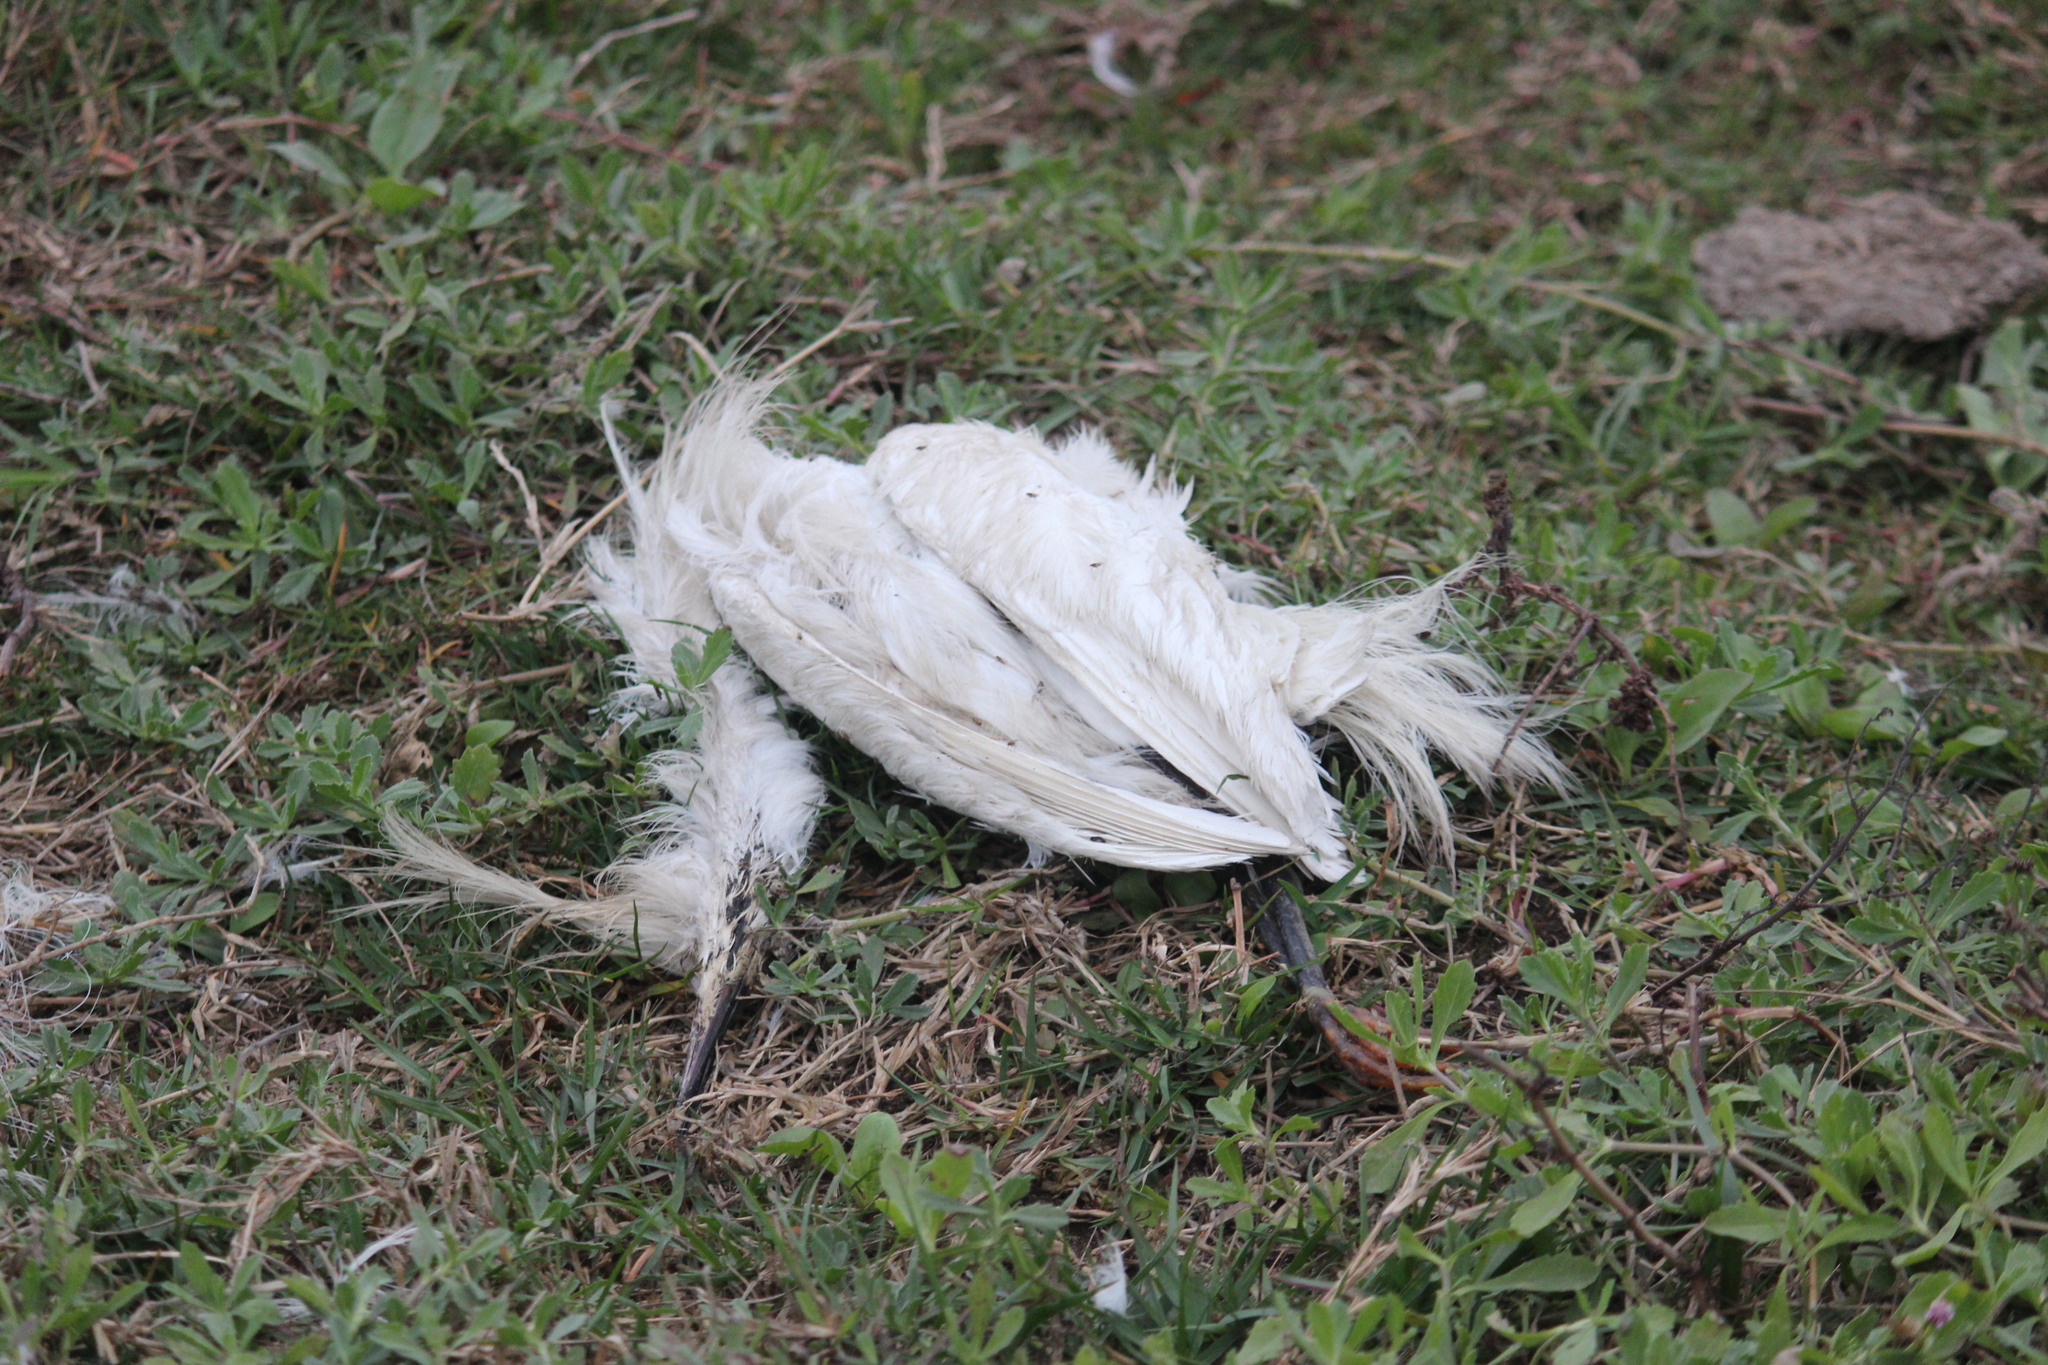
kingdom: Animalia
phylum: Chordata
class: Aves
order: Pelecaniformes
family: Ardeidae
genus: Egretta
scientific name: Egretta thula
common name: Snowy egret
